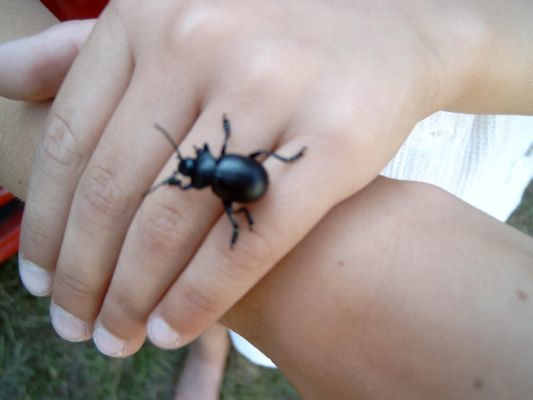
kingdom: Animalia
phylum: Arthropoda
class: Insecta
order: Coleoptera
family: Chrysomelidae
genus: Timarcha
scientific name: Timarcha tenebricosa
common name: Bloody-nosed beetle
